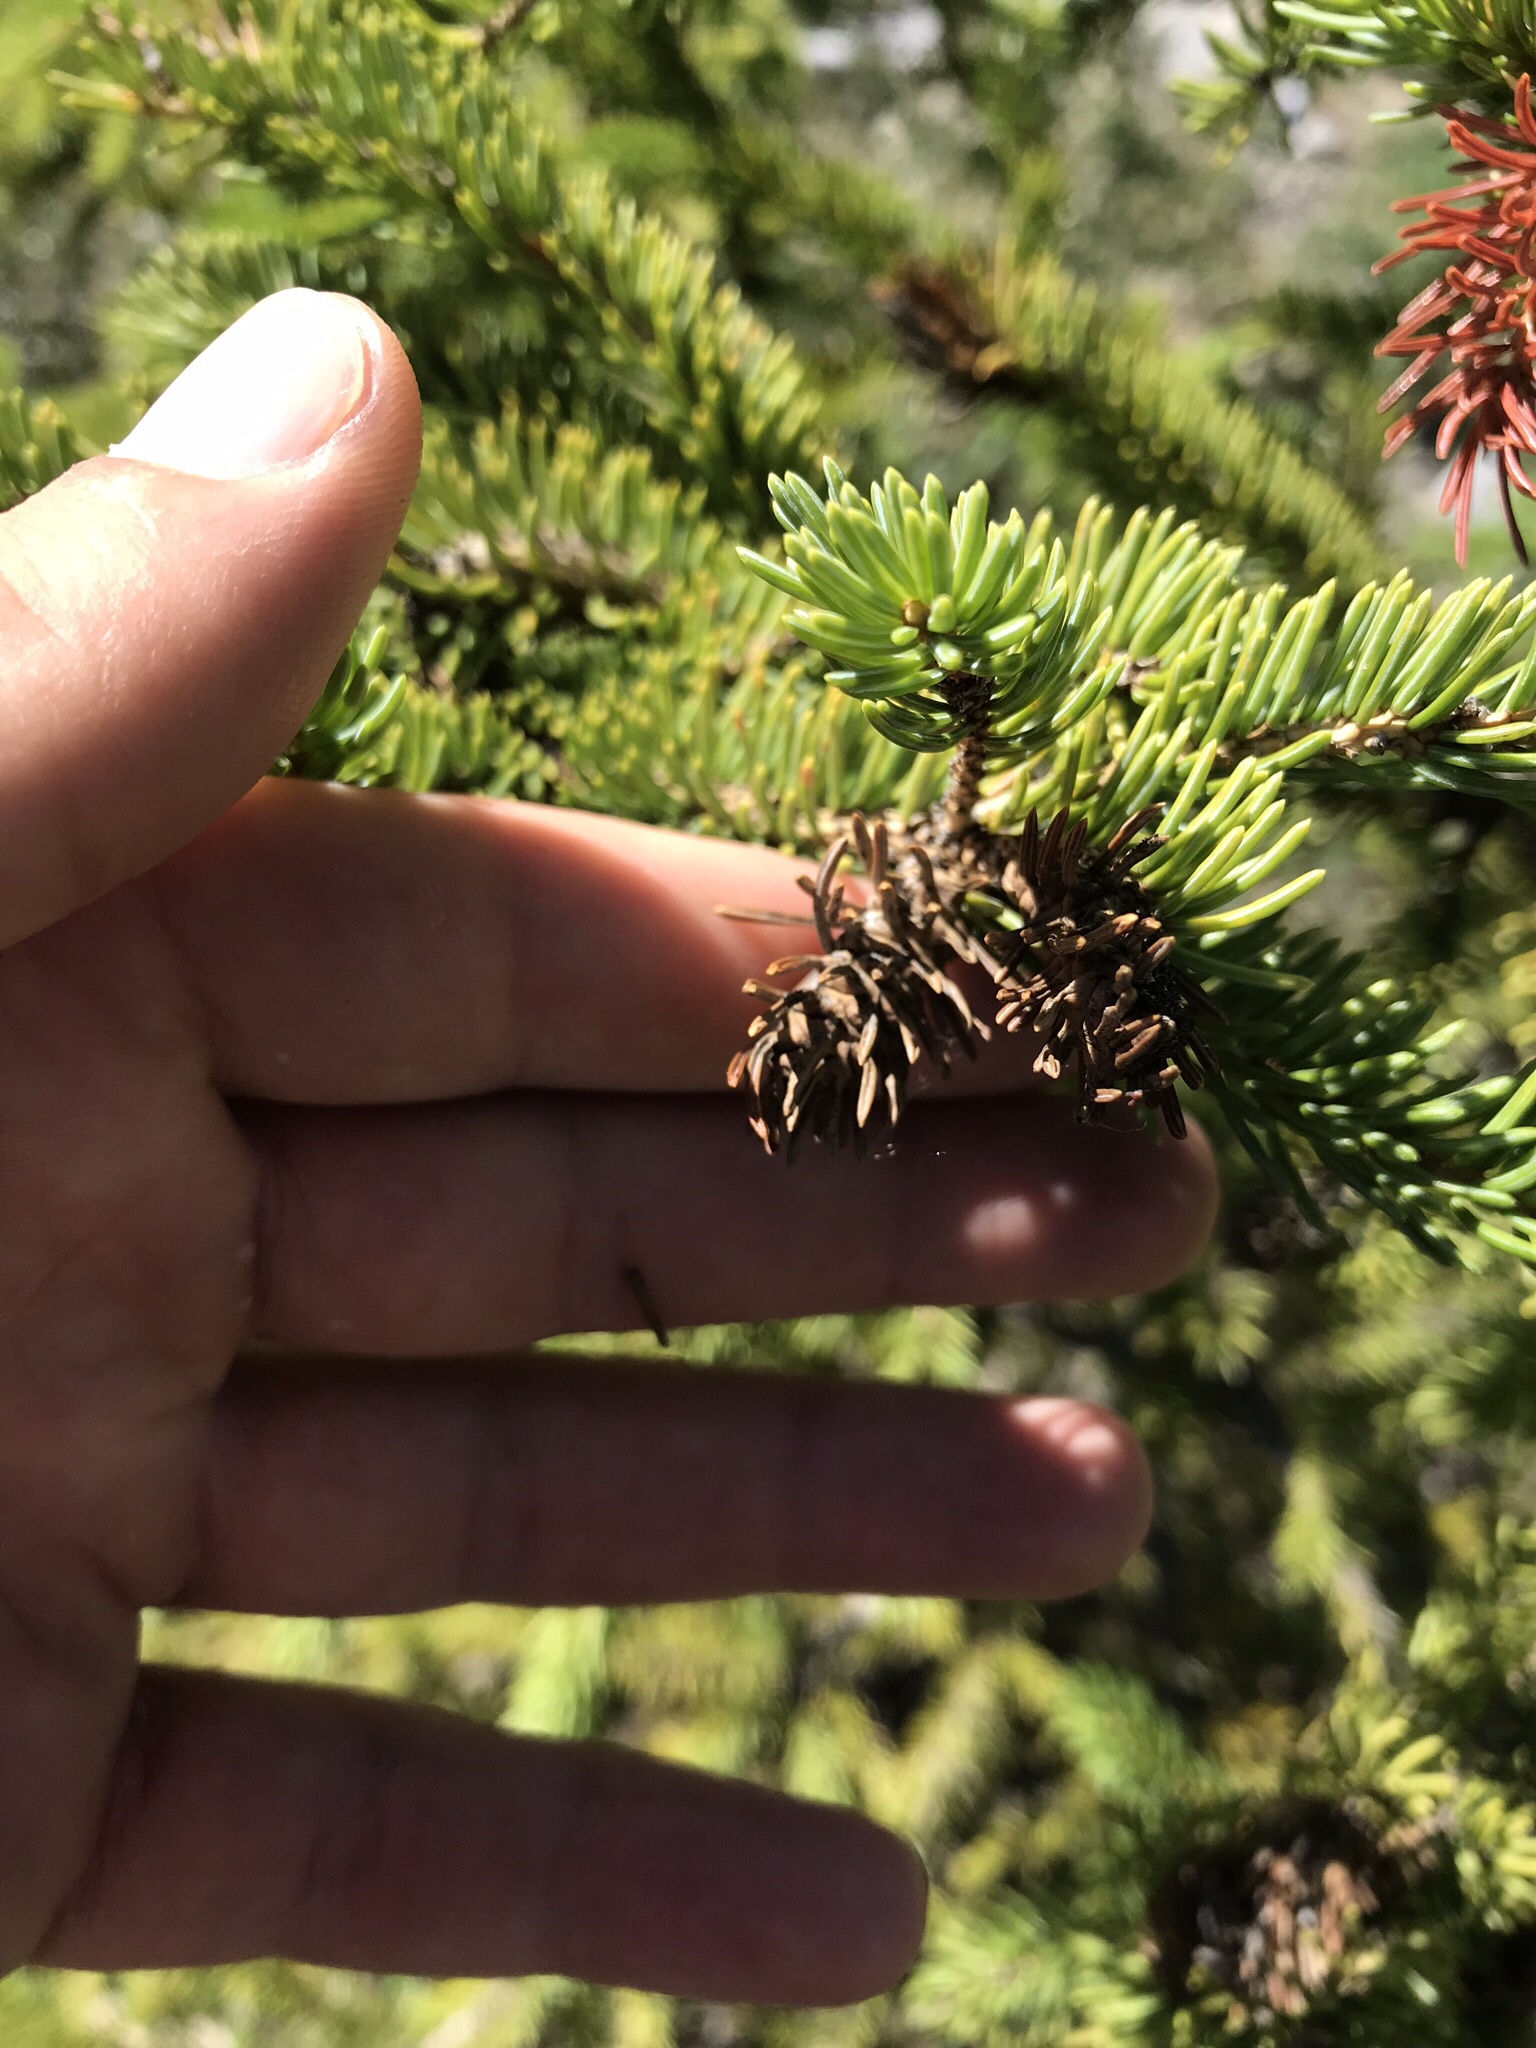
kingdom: Animalia
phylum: Arthropoda
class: Insecta
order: Diptera
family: Cecidomyiidae
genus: Piceacecis
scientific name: Piceacecis tsugae
